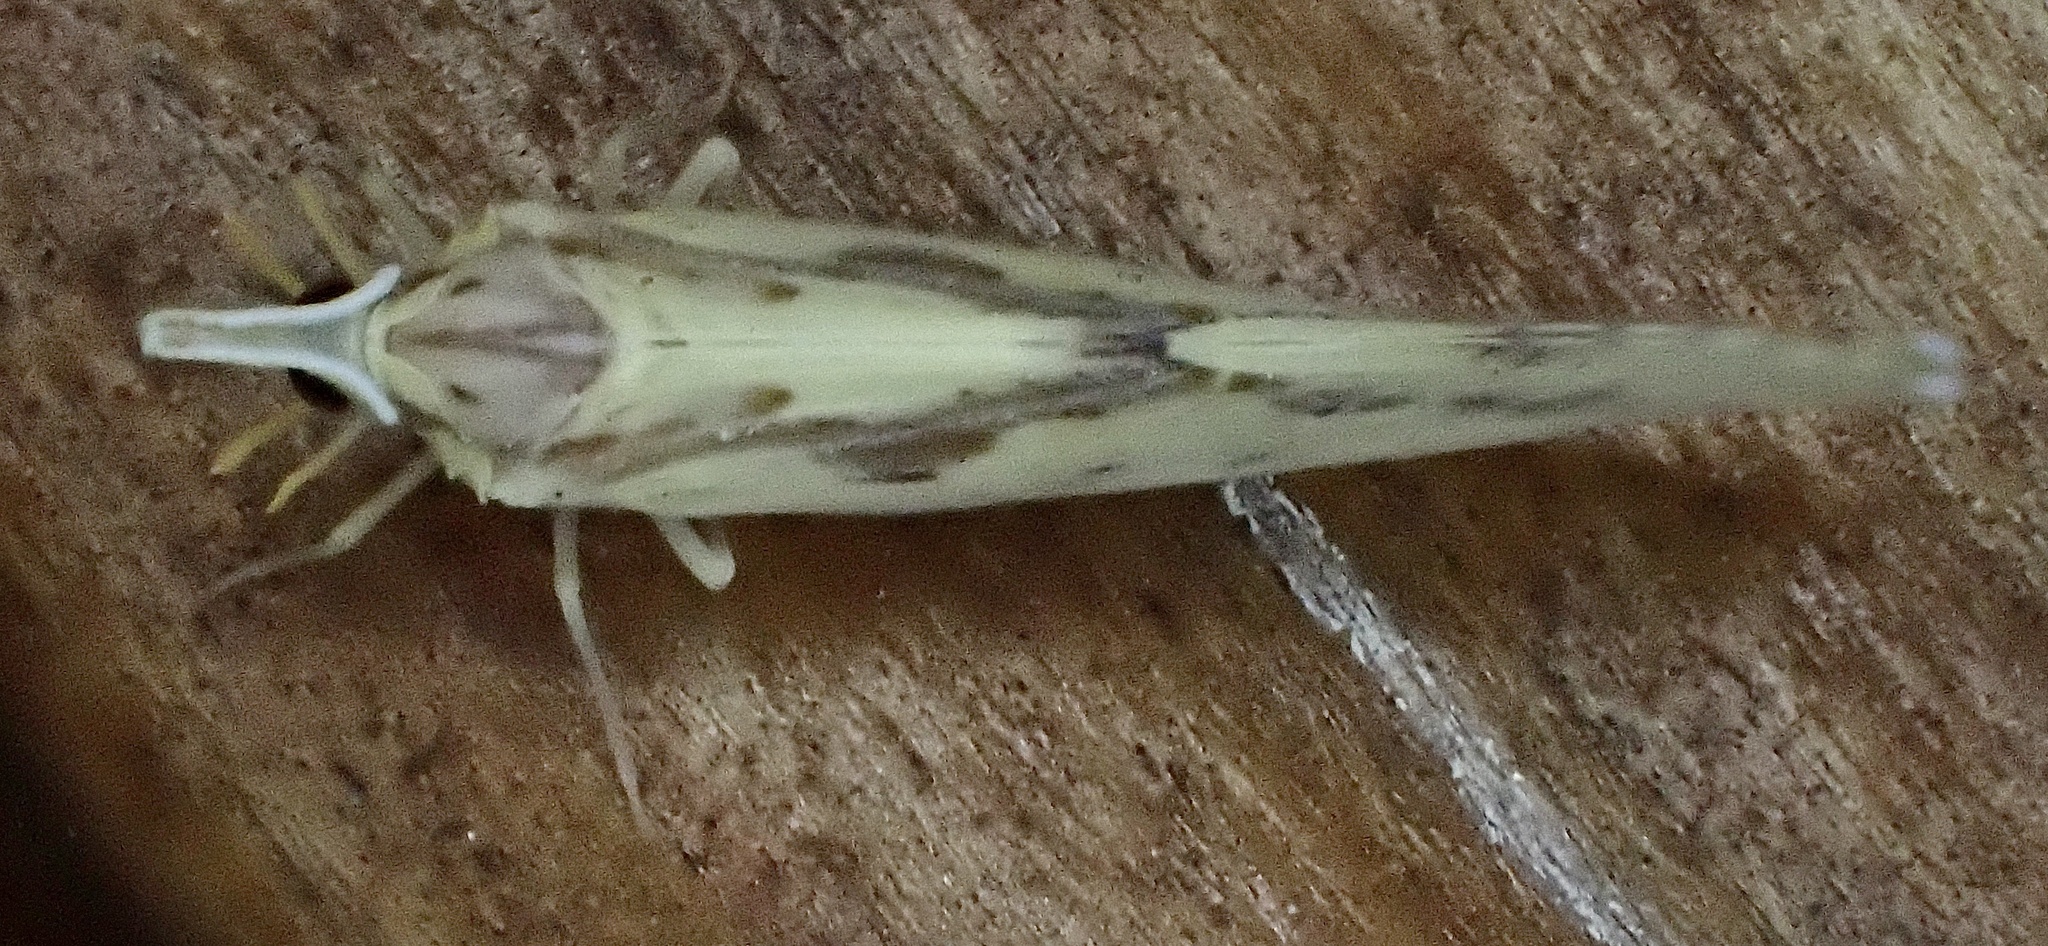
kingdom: Animalia
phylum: Arthropoda
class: Insecta
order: Hemiptera
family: Derbidae
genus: Otiocerus
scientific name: Otiocerus wolfii
